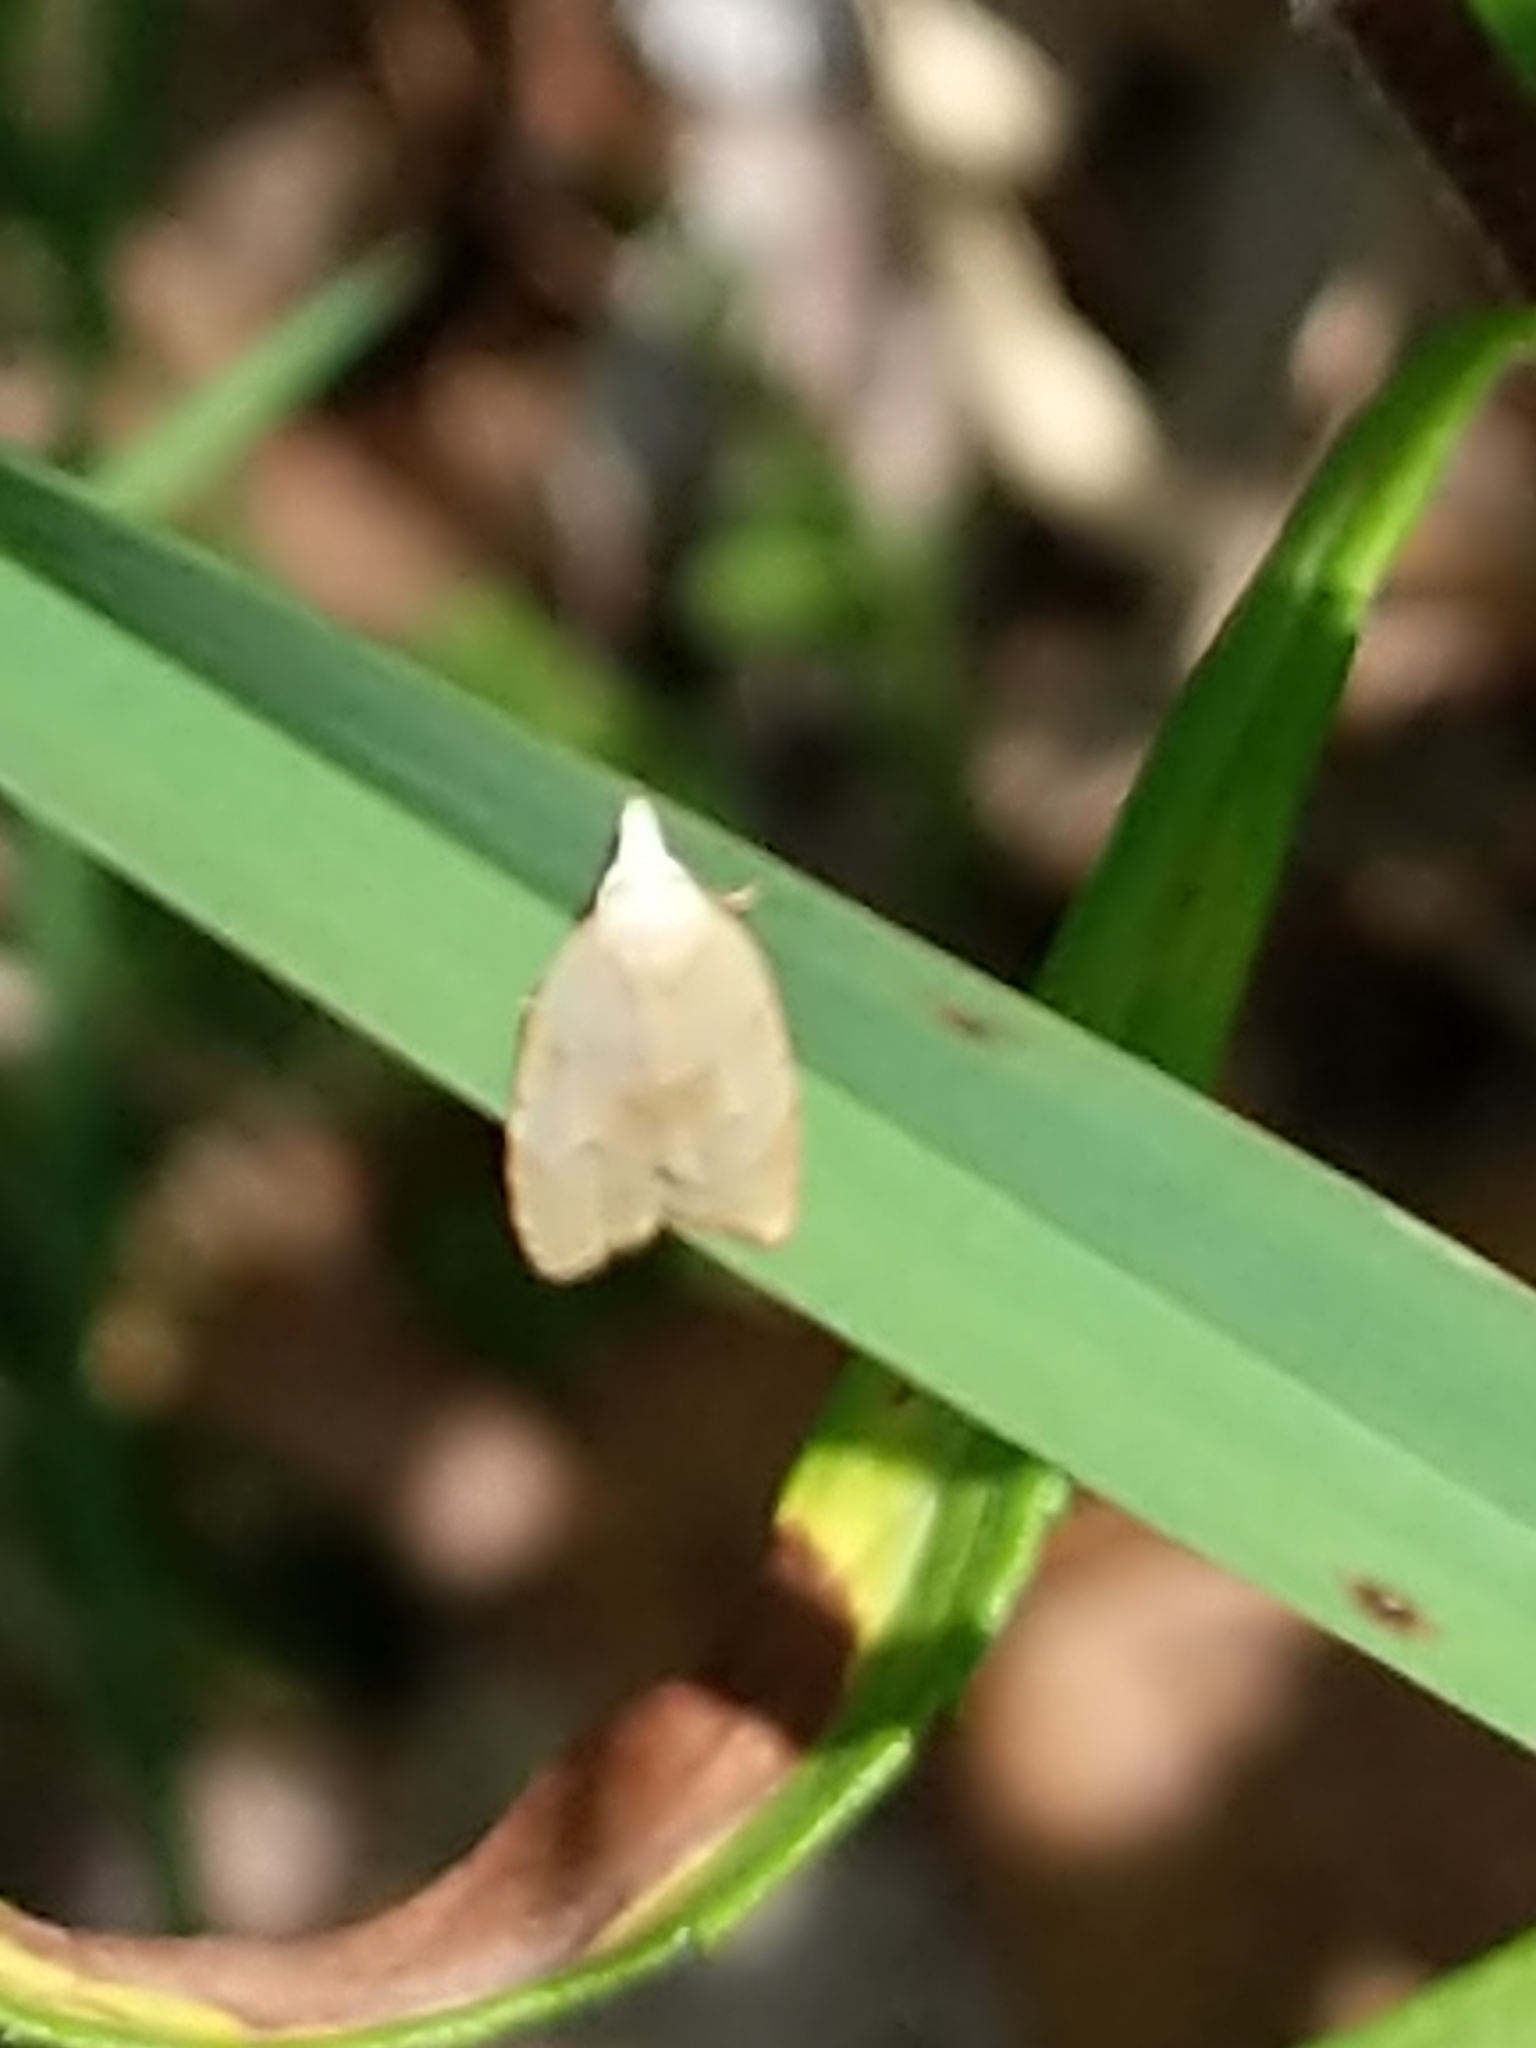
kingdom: Animalia
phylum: Arthropoda
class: Insecta
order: Lepidoptera
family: Tortricidae
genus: Coelostathma
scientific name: Coelostathma discopunctana
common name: Batman moth
